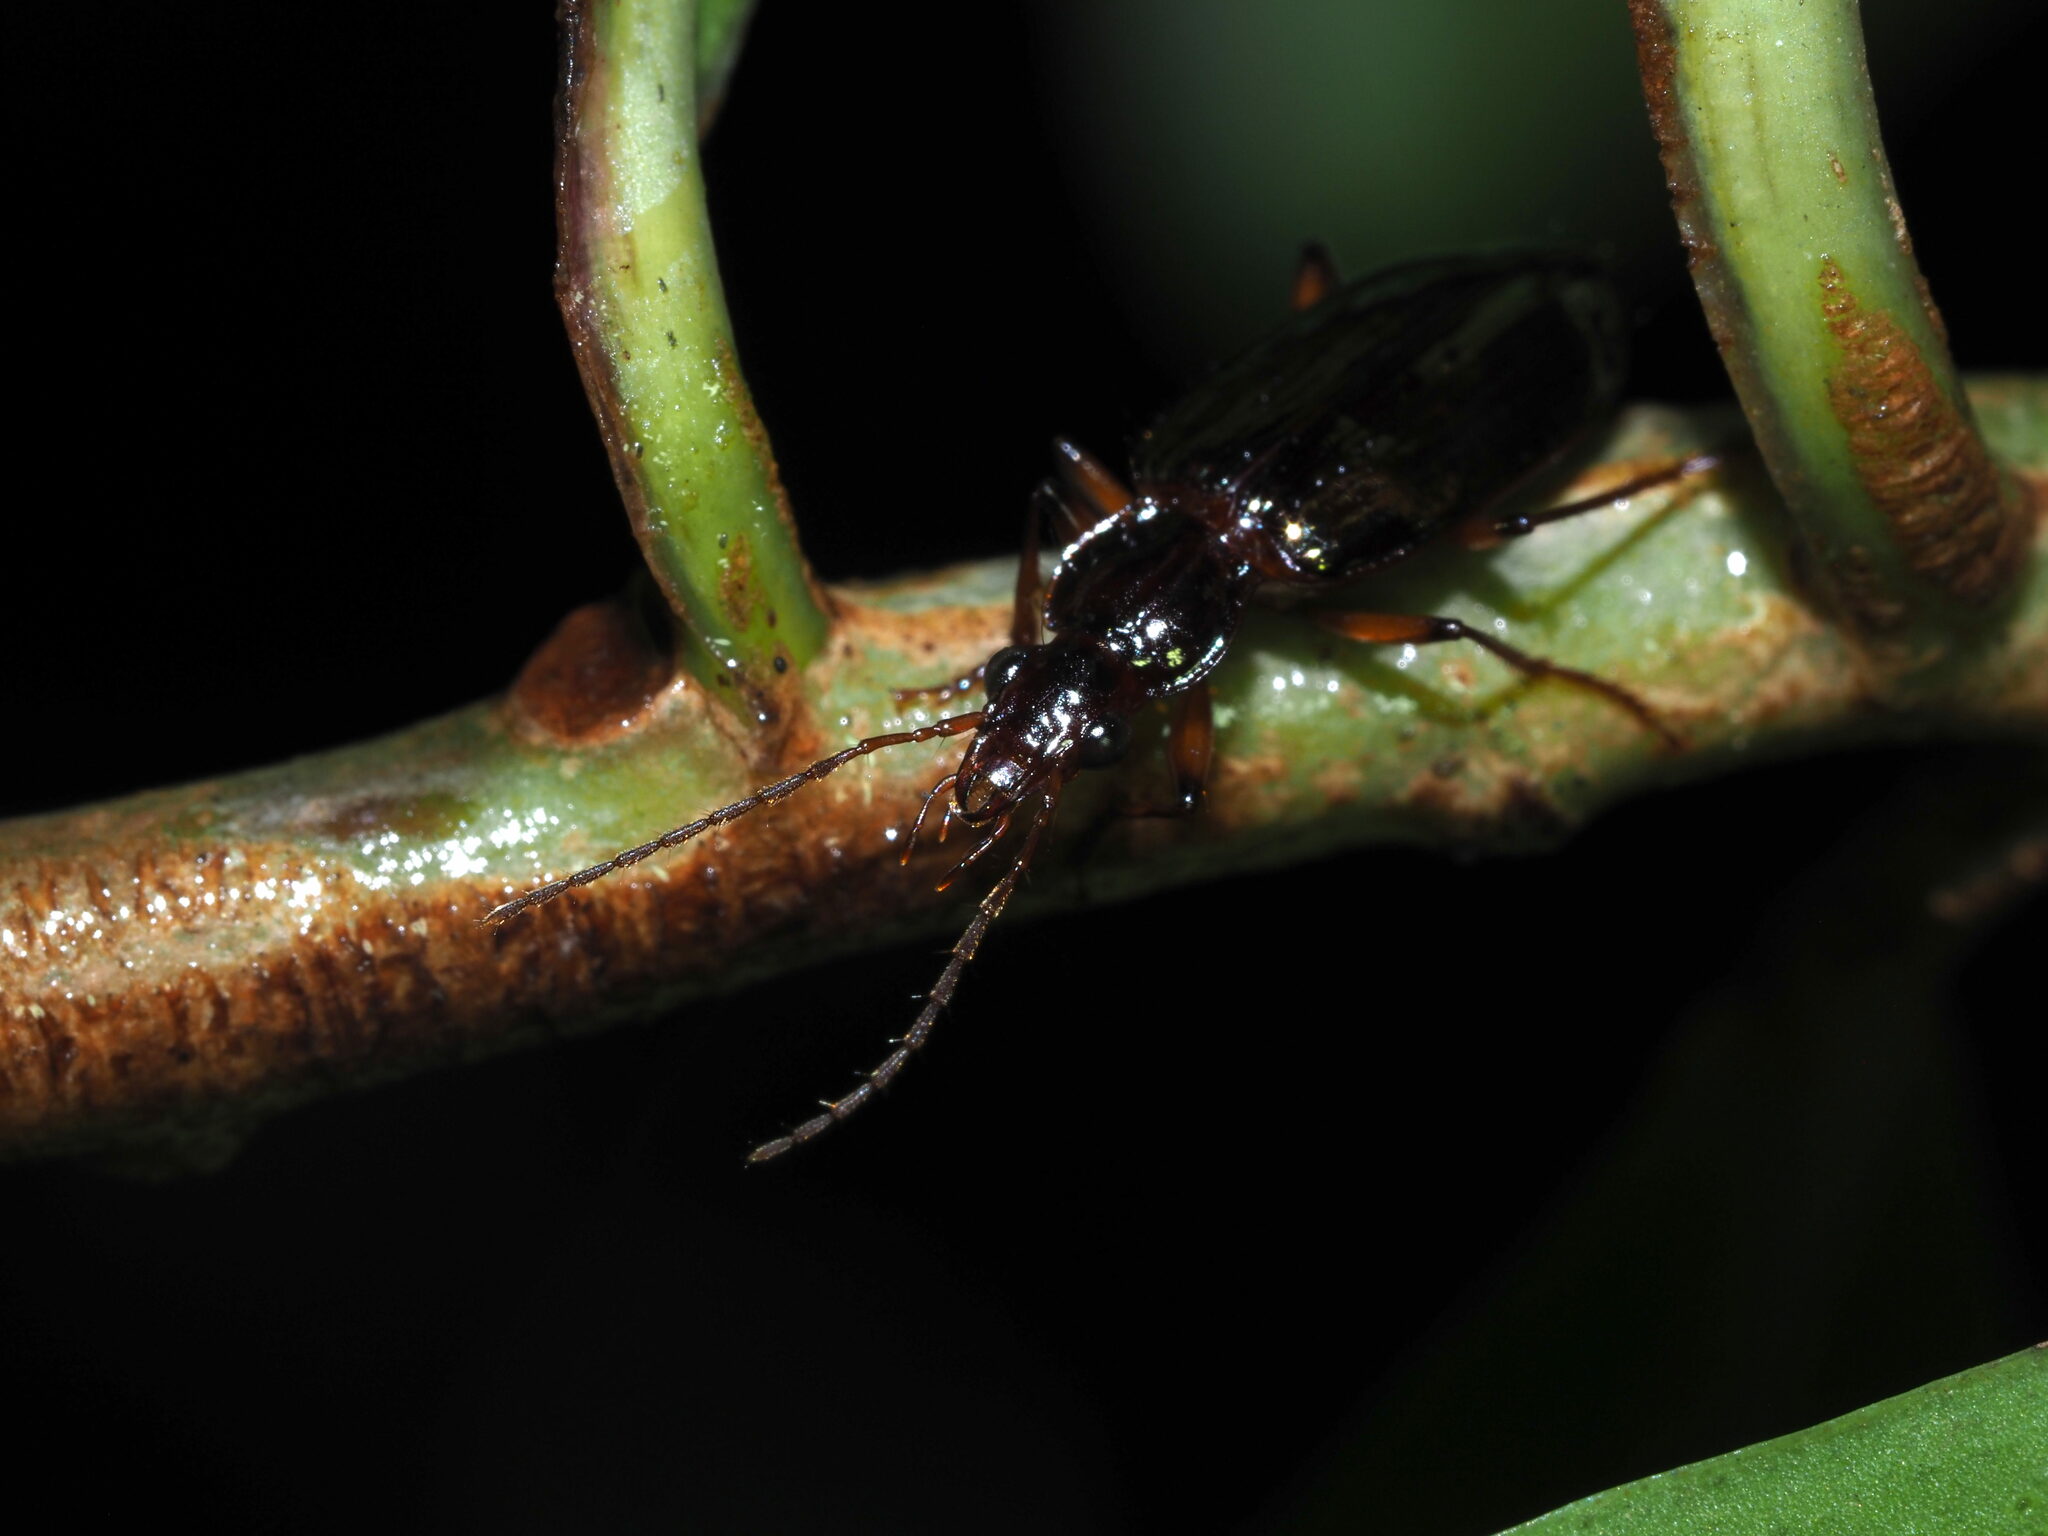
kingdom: Animalia
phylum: Arthropoda
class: Insecta
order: Coleoptera
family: Carabidae
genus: Metacolpodes
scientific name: Metacolpodes buchannani
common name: Buchanan's harp ground beetle
